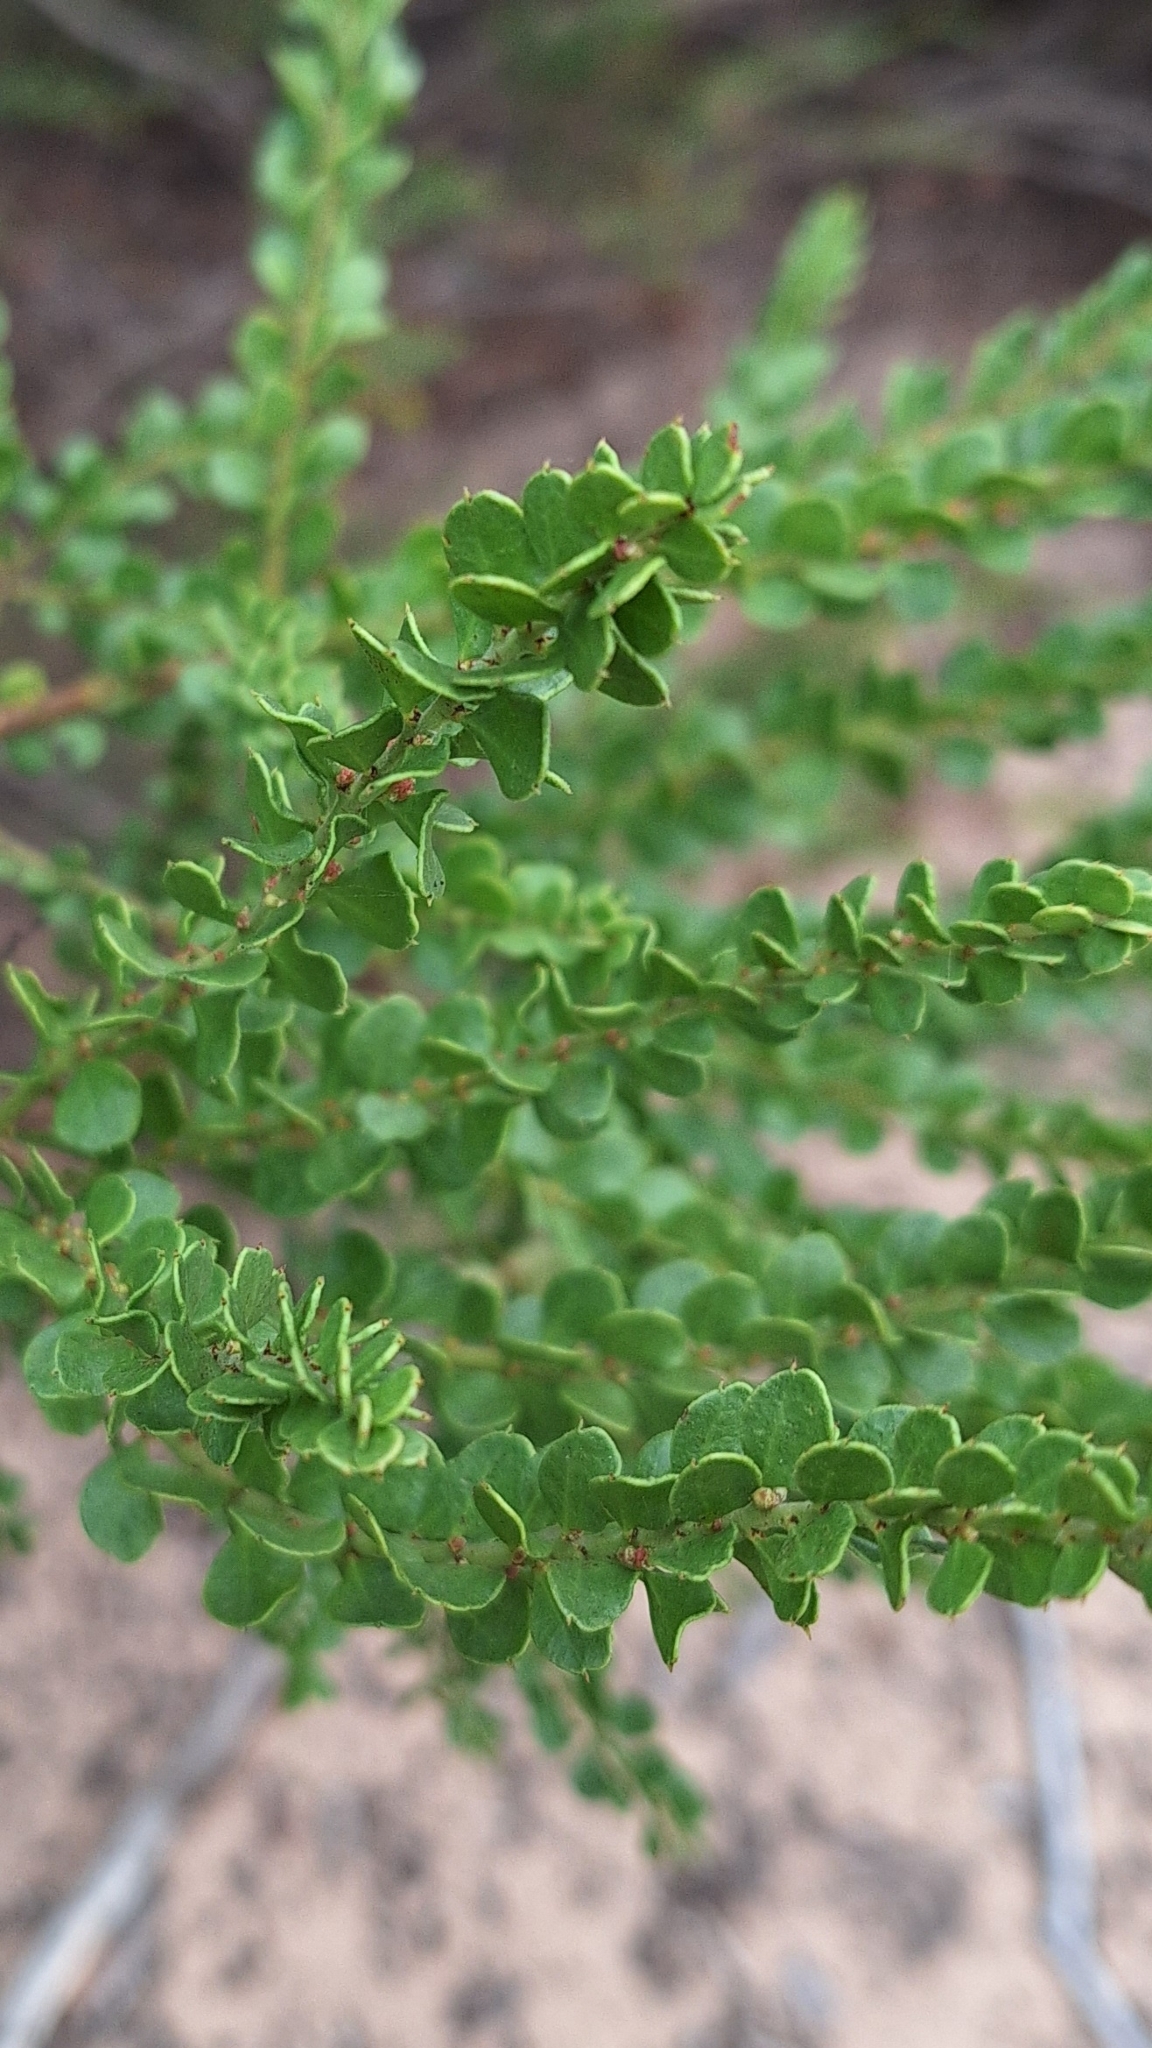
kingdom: Plantae
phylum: Tracheophyta
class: Magnoliopsida
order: Fabales
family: Fabaceae
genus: Acacia
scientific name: Acacia acinacea
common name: Gold-dust acacia
